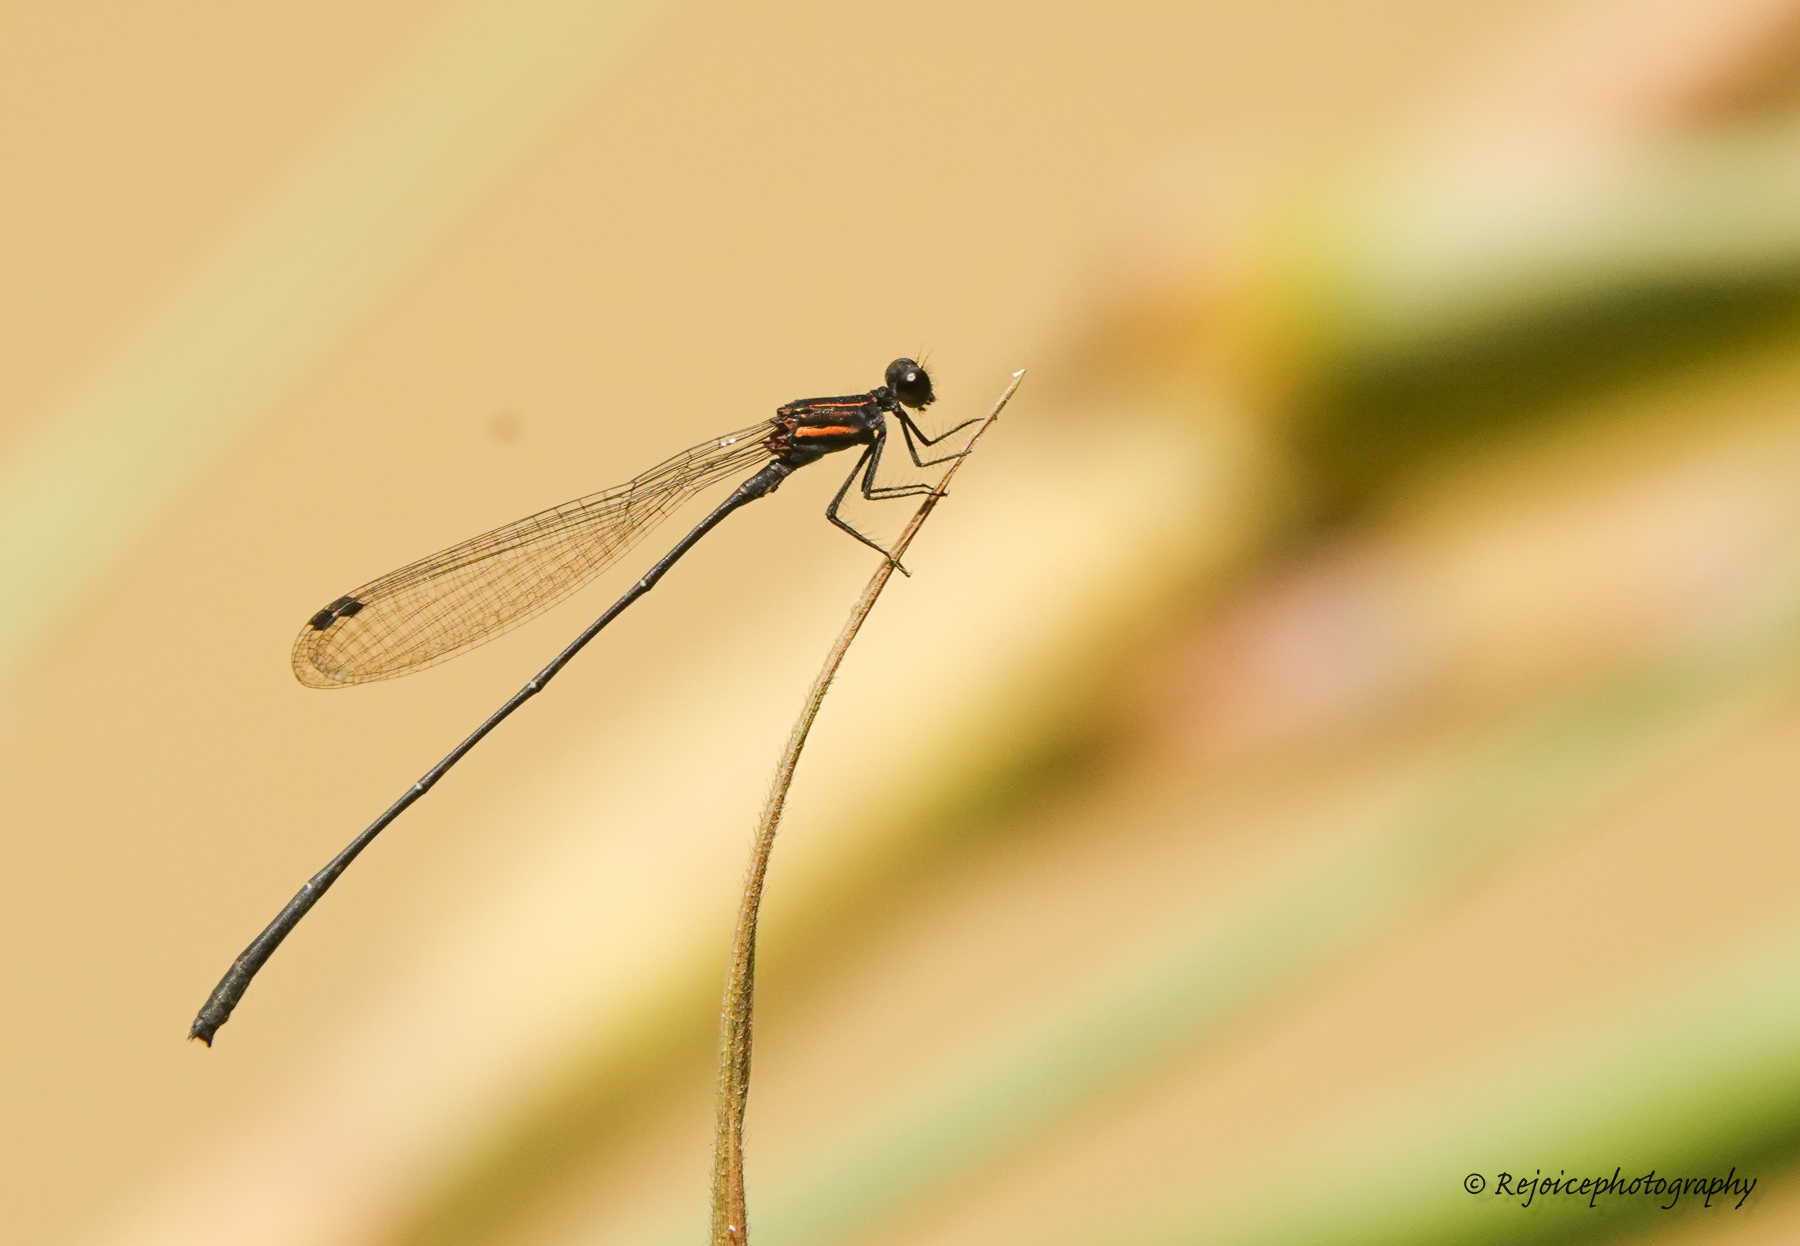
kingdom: Animalia
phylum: Arthropoda
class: Insecta
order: Odonata
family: Platycnemididae
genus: Prodasineura
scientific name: Prodasineura verticalis
